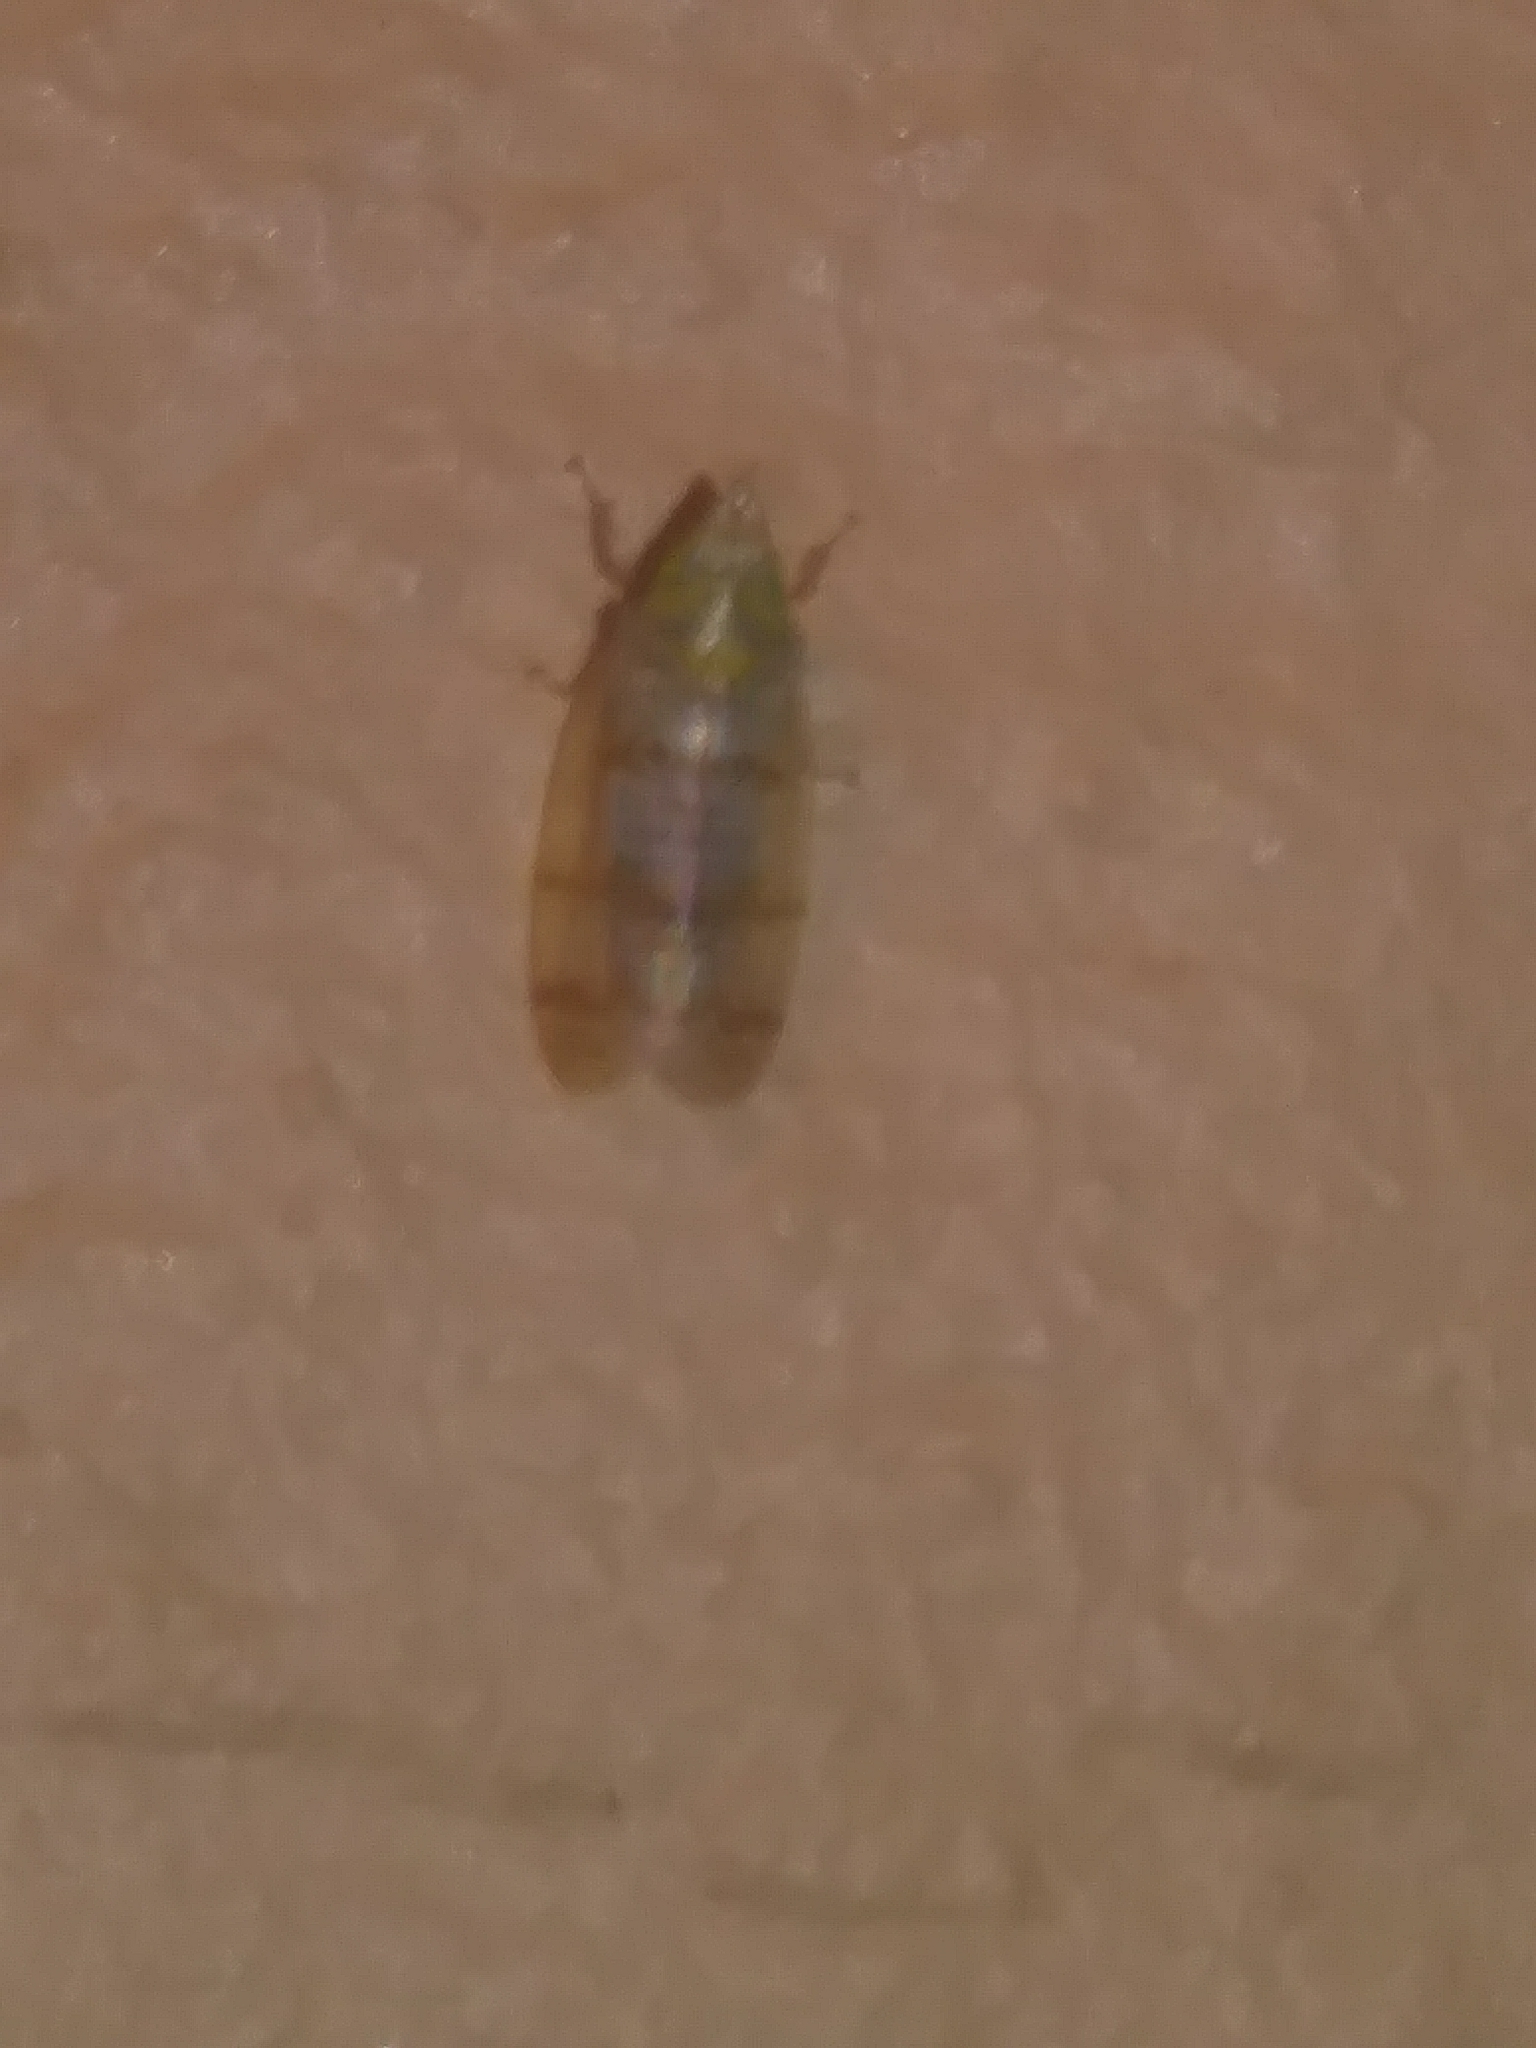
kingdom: Animalia
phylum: Arthropoda
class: Insecta
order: Hemiptera
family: Cicadellidae
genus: Japananus
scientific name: Japananus hyalinus
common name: The japanese maple leafhopper
